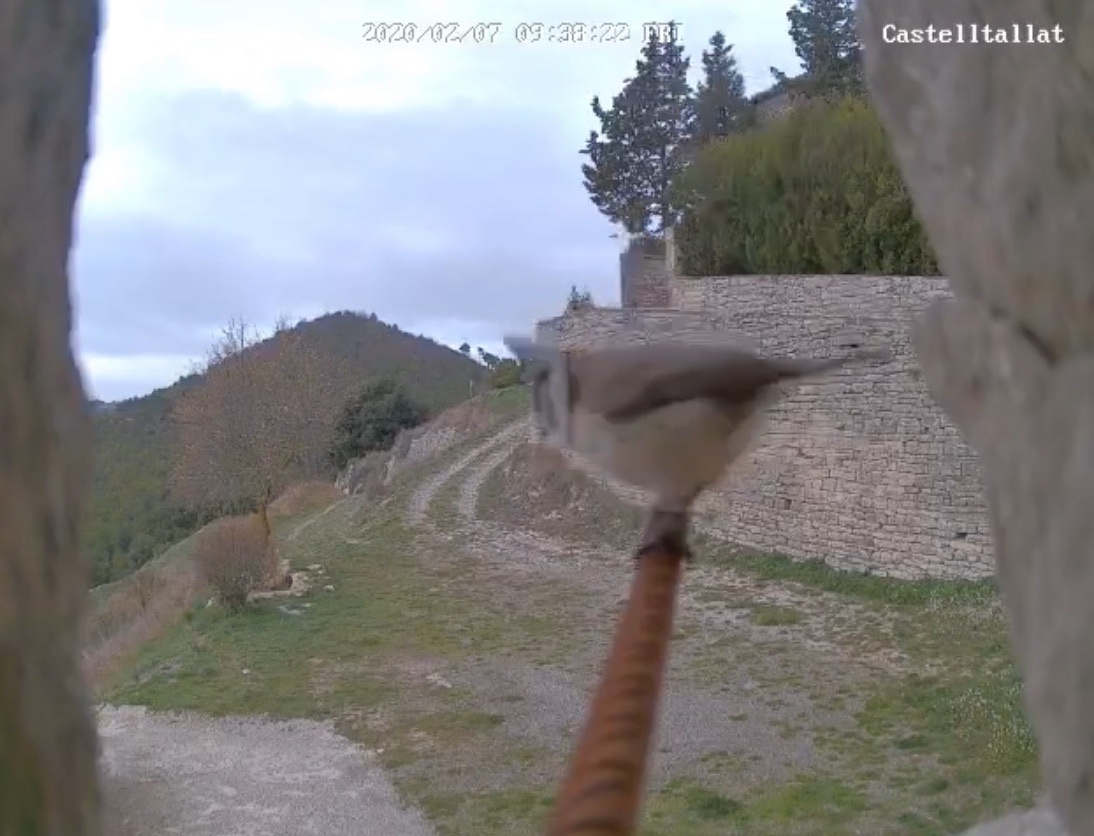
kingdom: Animalia
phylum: Chordata
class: Aves
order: Passeriformes
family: Paridae
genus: Lophophanes
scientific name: Lophophanes cristatus
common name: European crested tit
